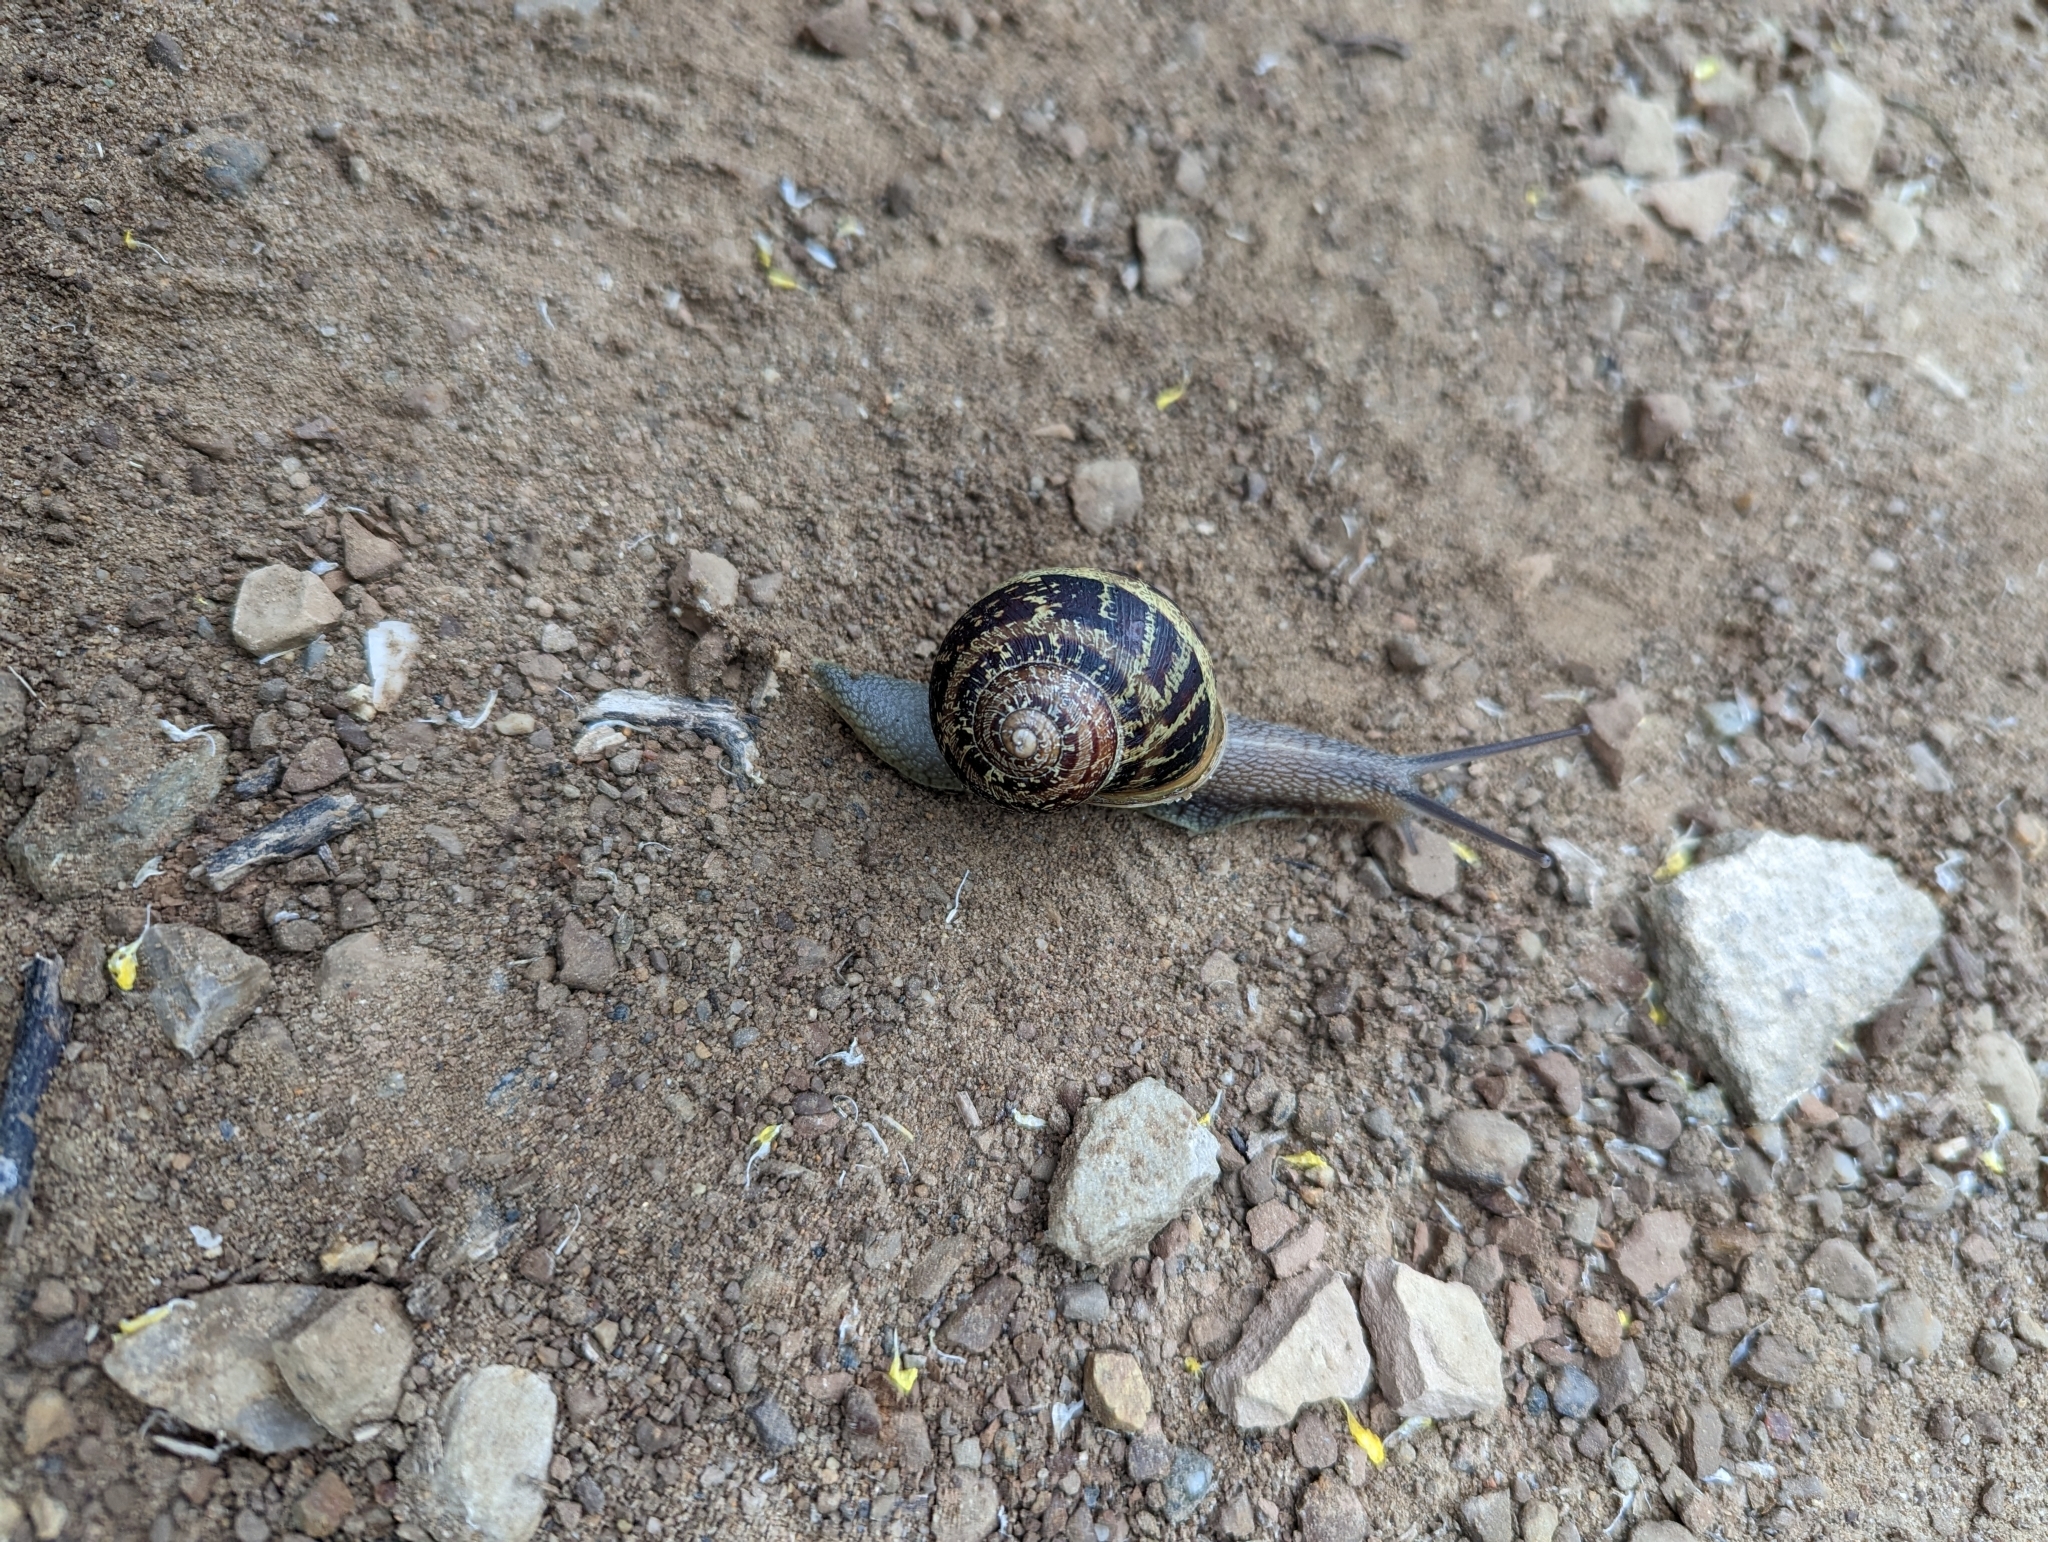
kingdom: Animalia
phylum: Mollusca
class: Gastropoda
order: Stylommatophora
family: Helicidae
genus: Cornu
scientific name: Cornu aspersum
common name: Brown garden snail
